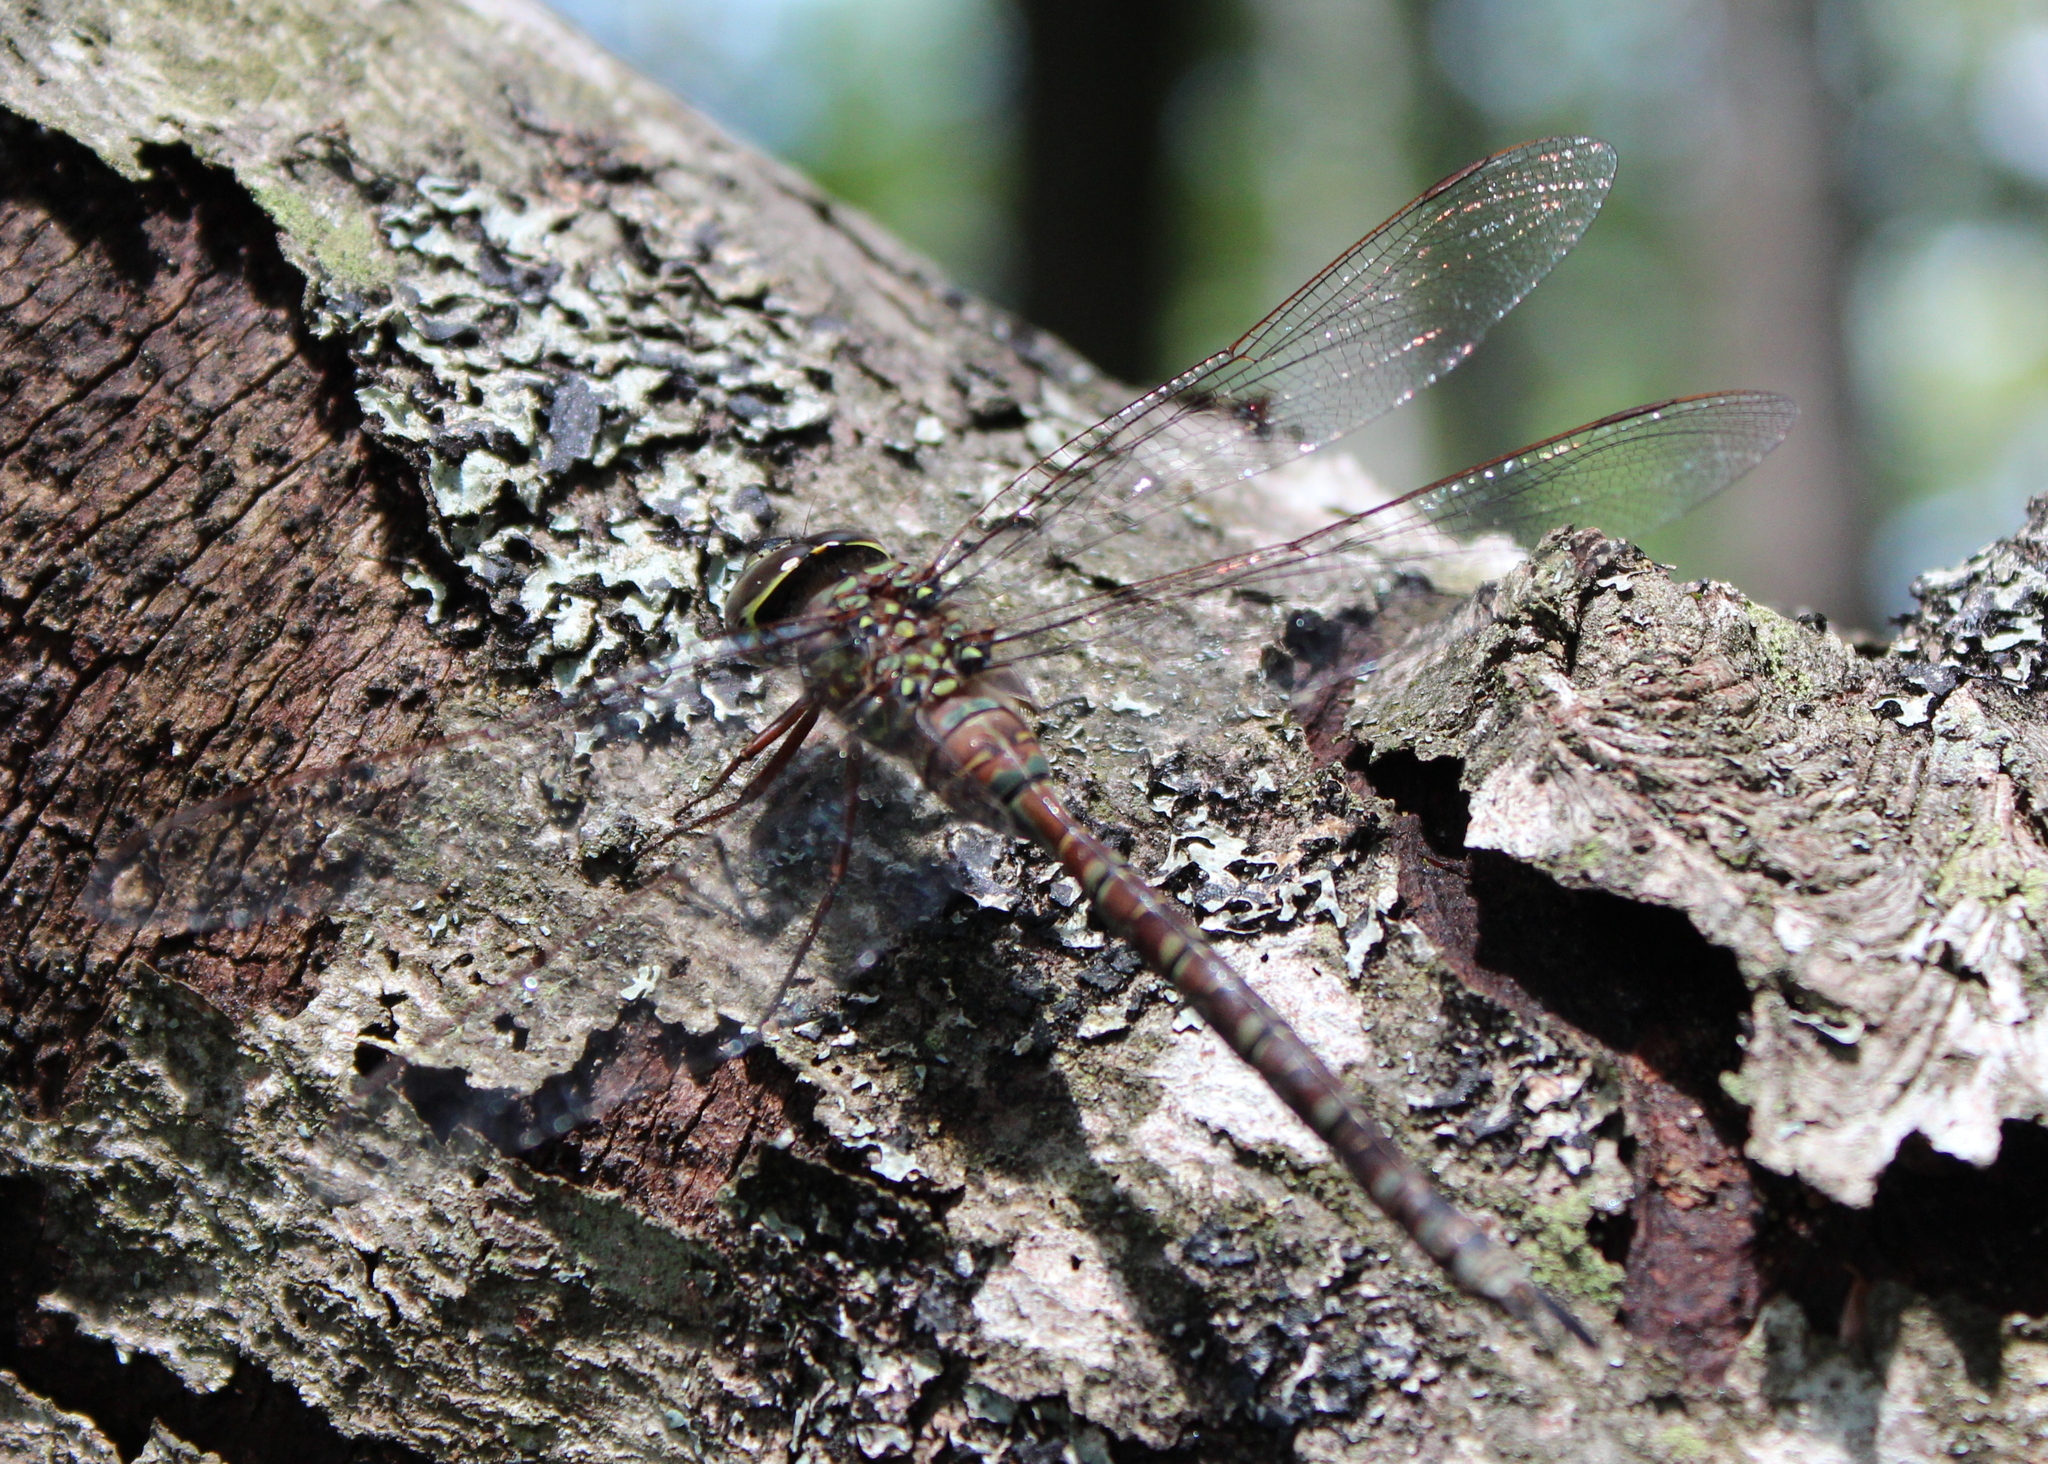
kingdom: Animalia
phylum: Arthropoda
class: Insecta
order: Odonata
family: Aeshnidae
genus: Aeshna
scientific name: Aeshna canadensis
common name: Canada darner
